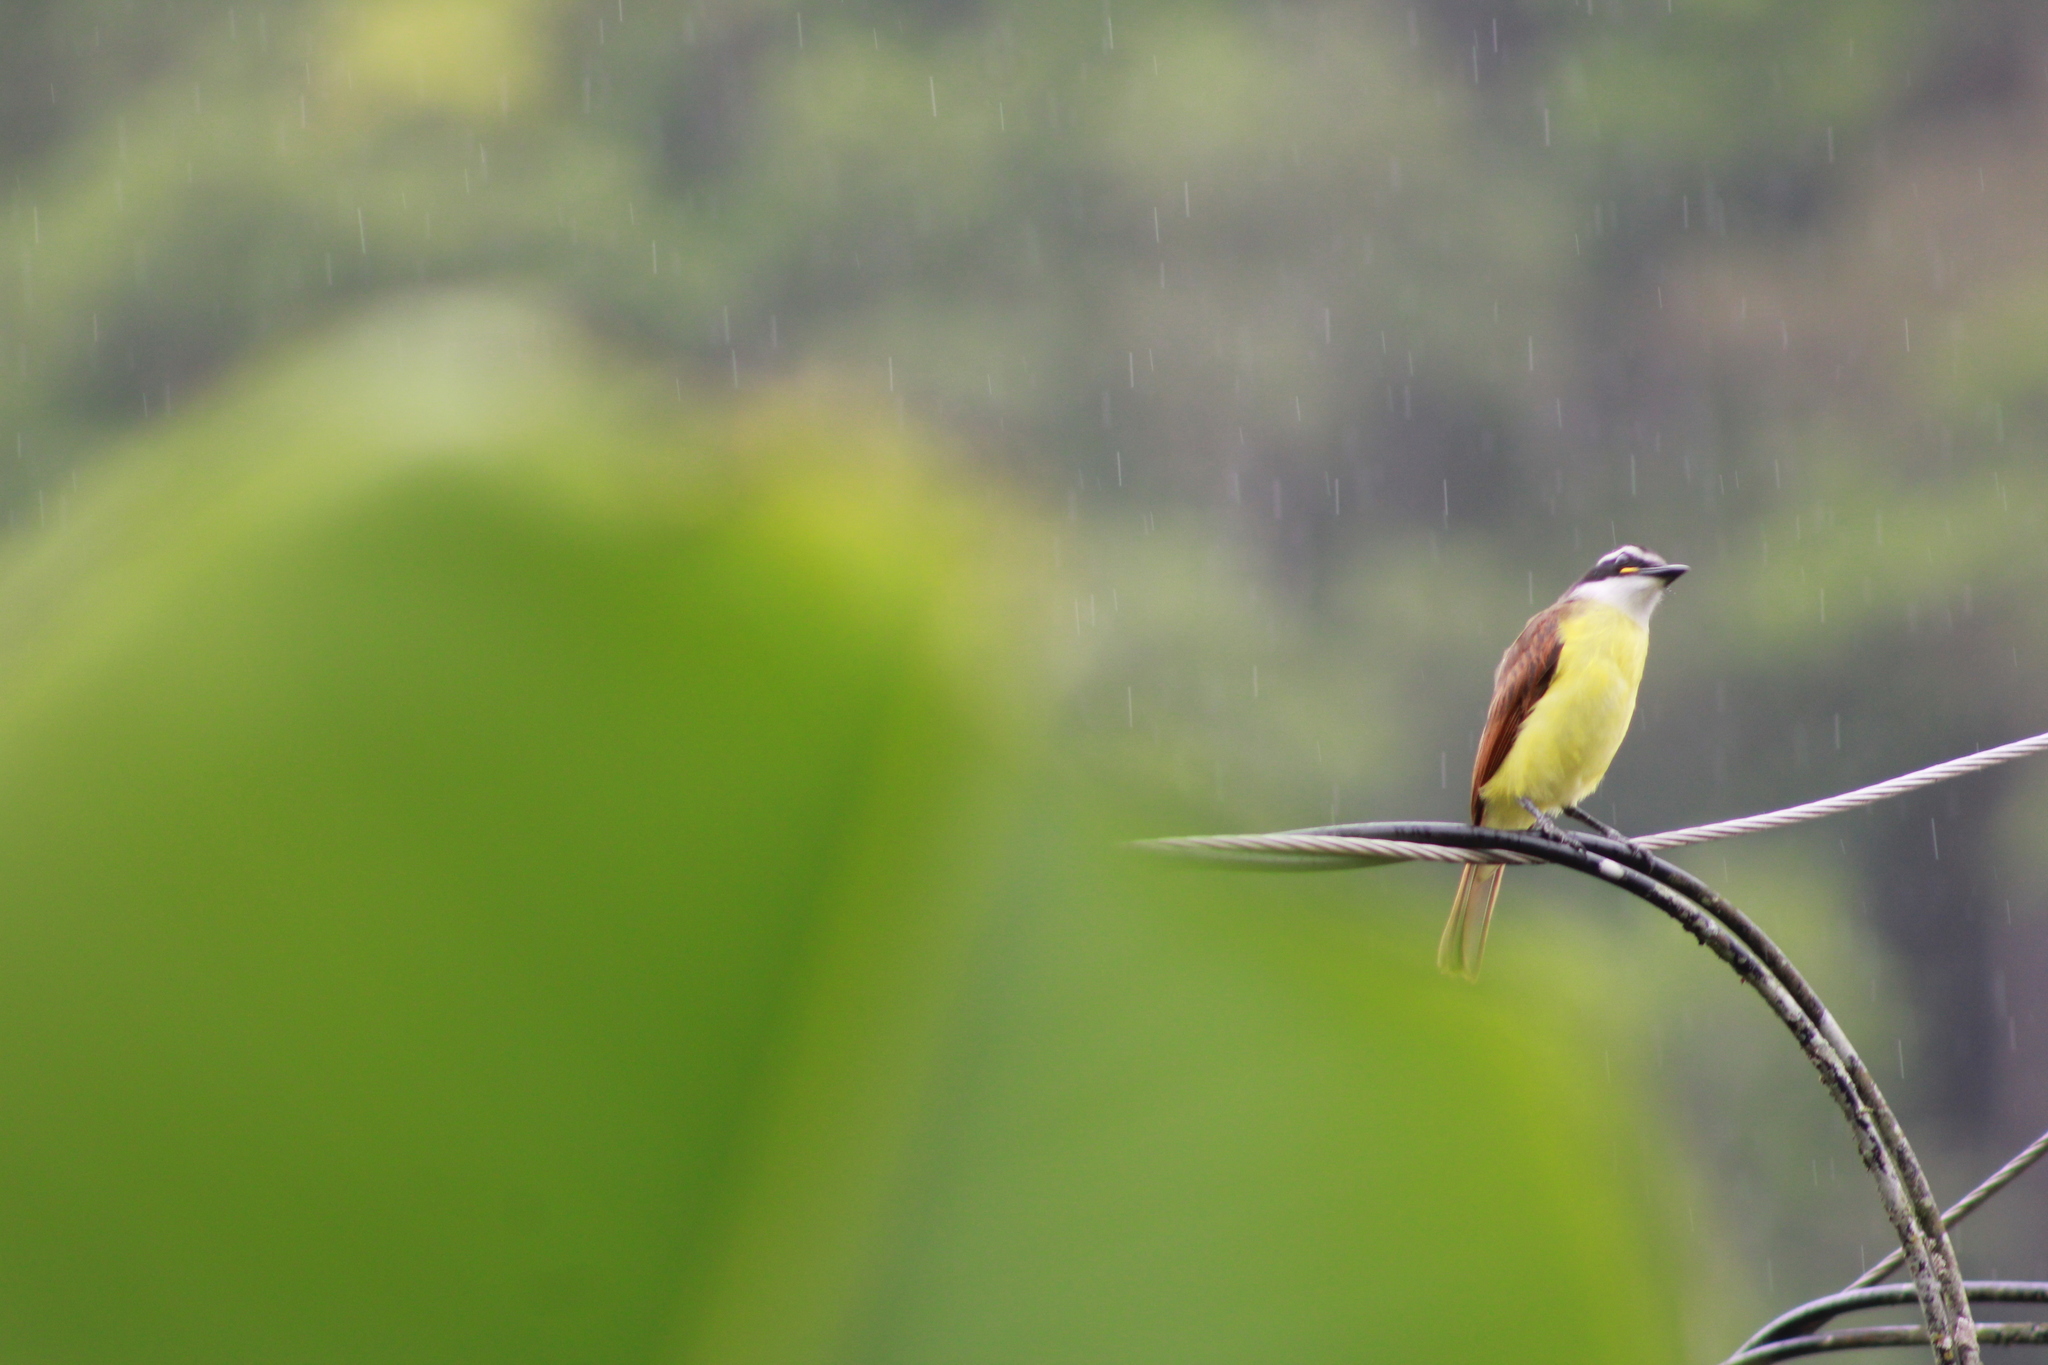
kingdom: Animalia
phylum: Chordata
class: Aves
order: Passeriformes
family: Tyrannidae
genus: Pitangus
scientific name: Pitangus sulphuratus
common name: Great kiskadee
